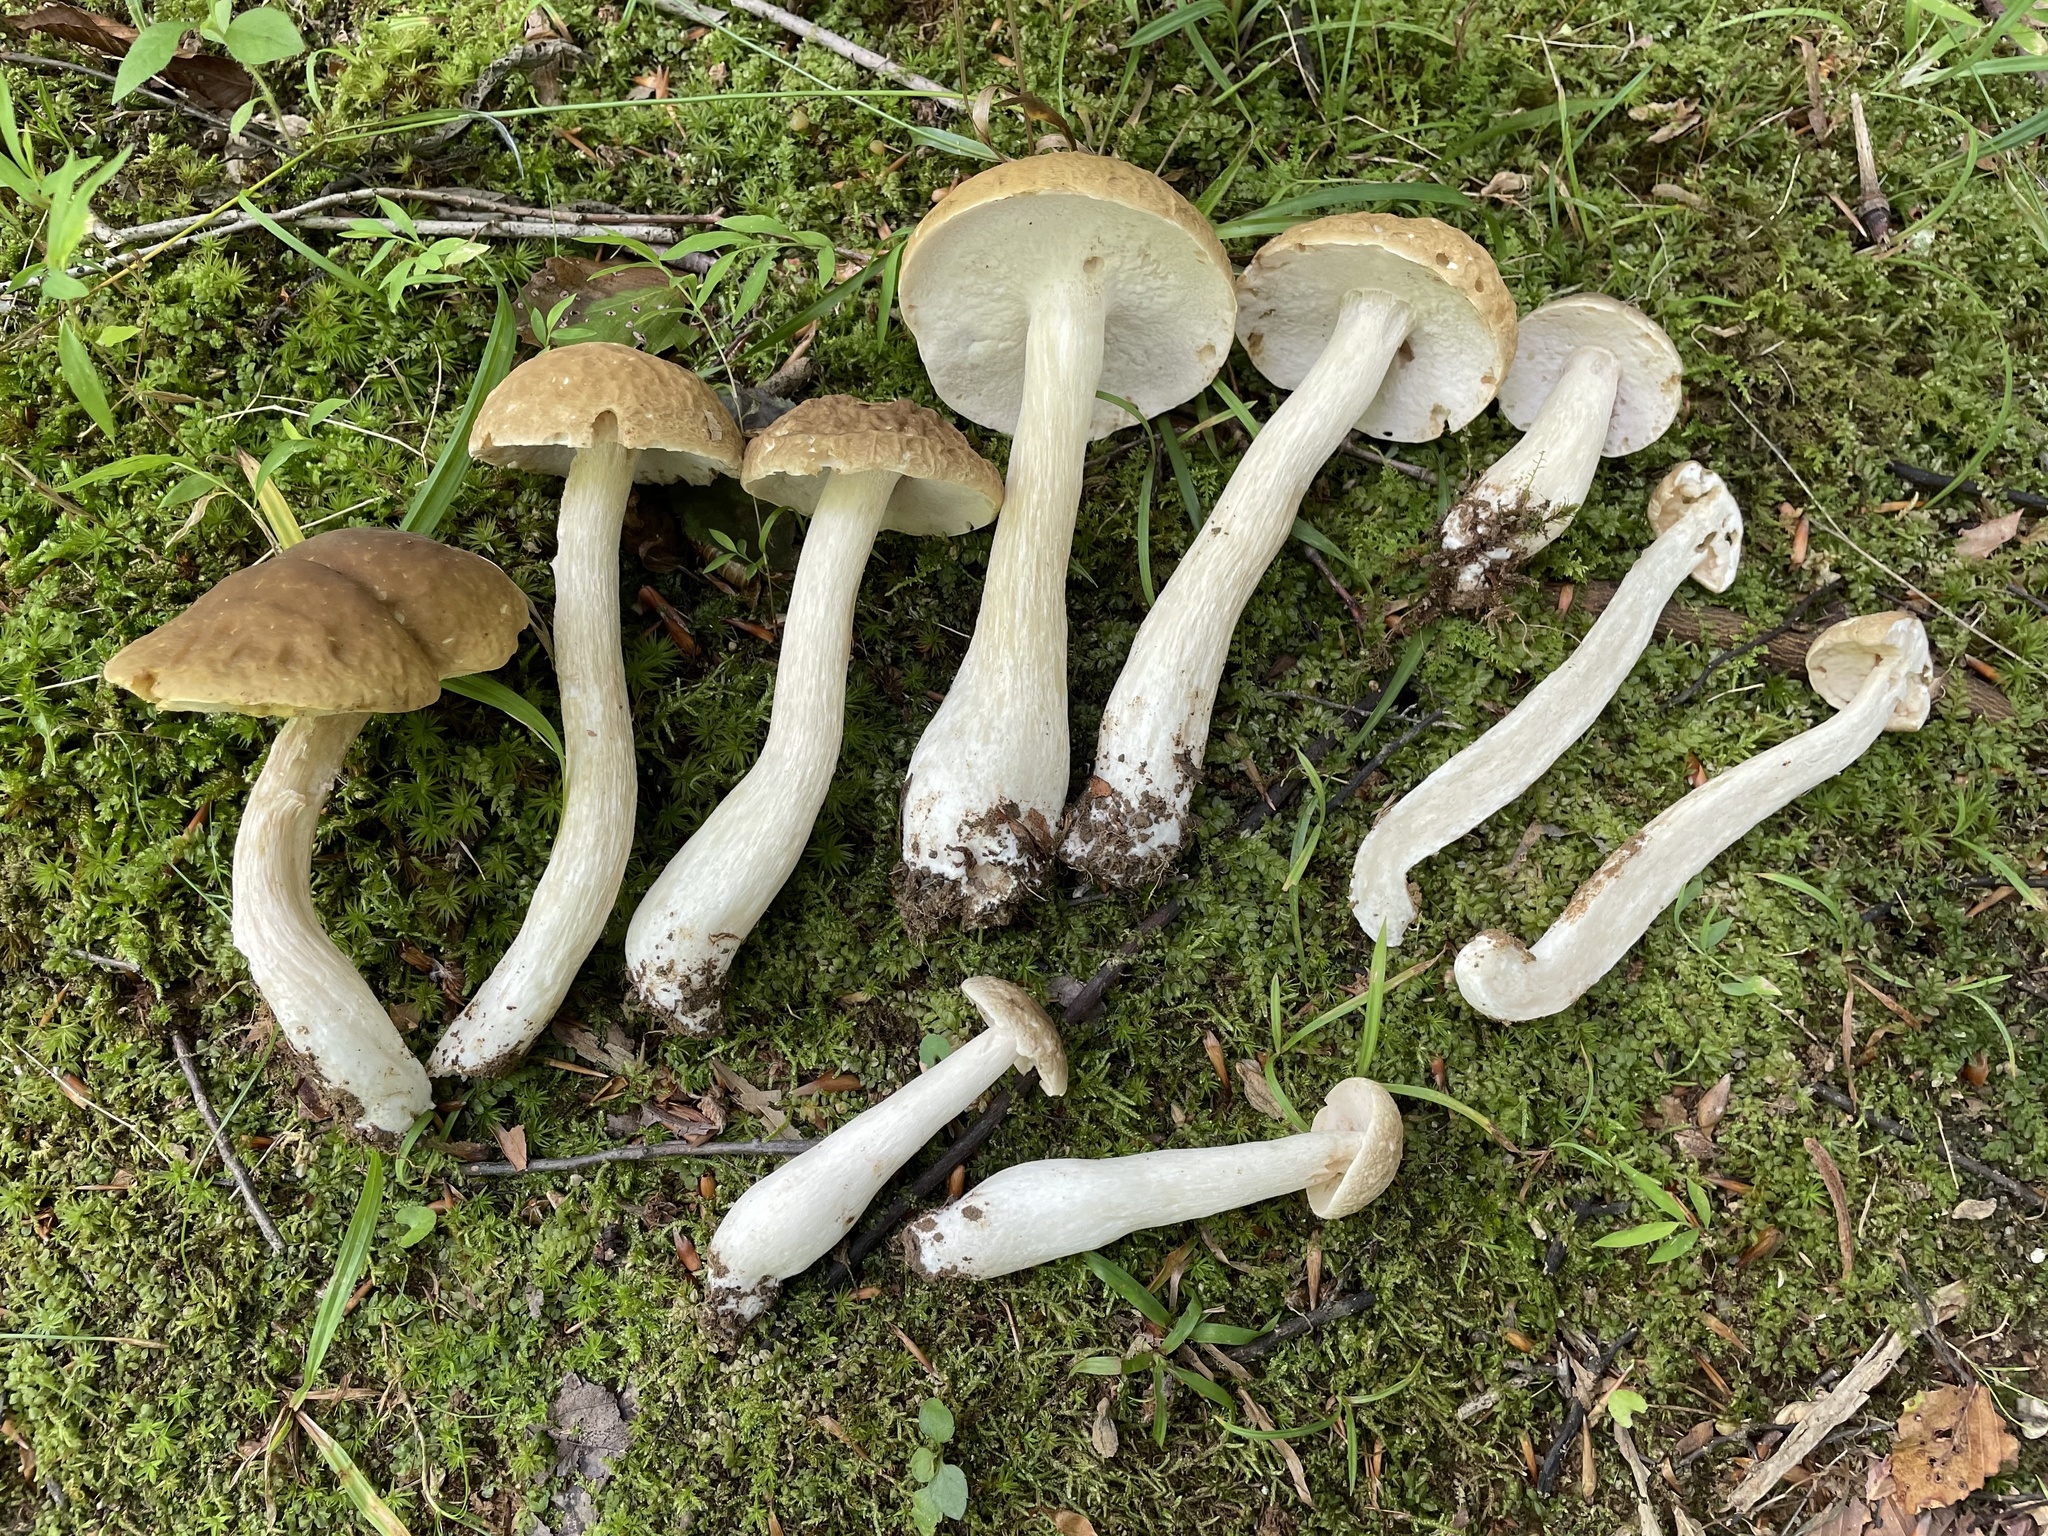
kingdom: Fungi
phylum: Basidiomycota
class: Agaricomycetes
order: Boletales
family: Boletaceae
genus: Boletus
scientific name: Boletus nobilis
